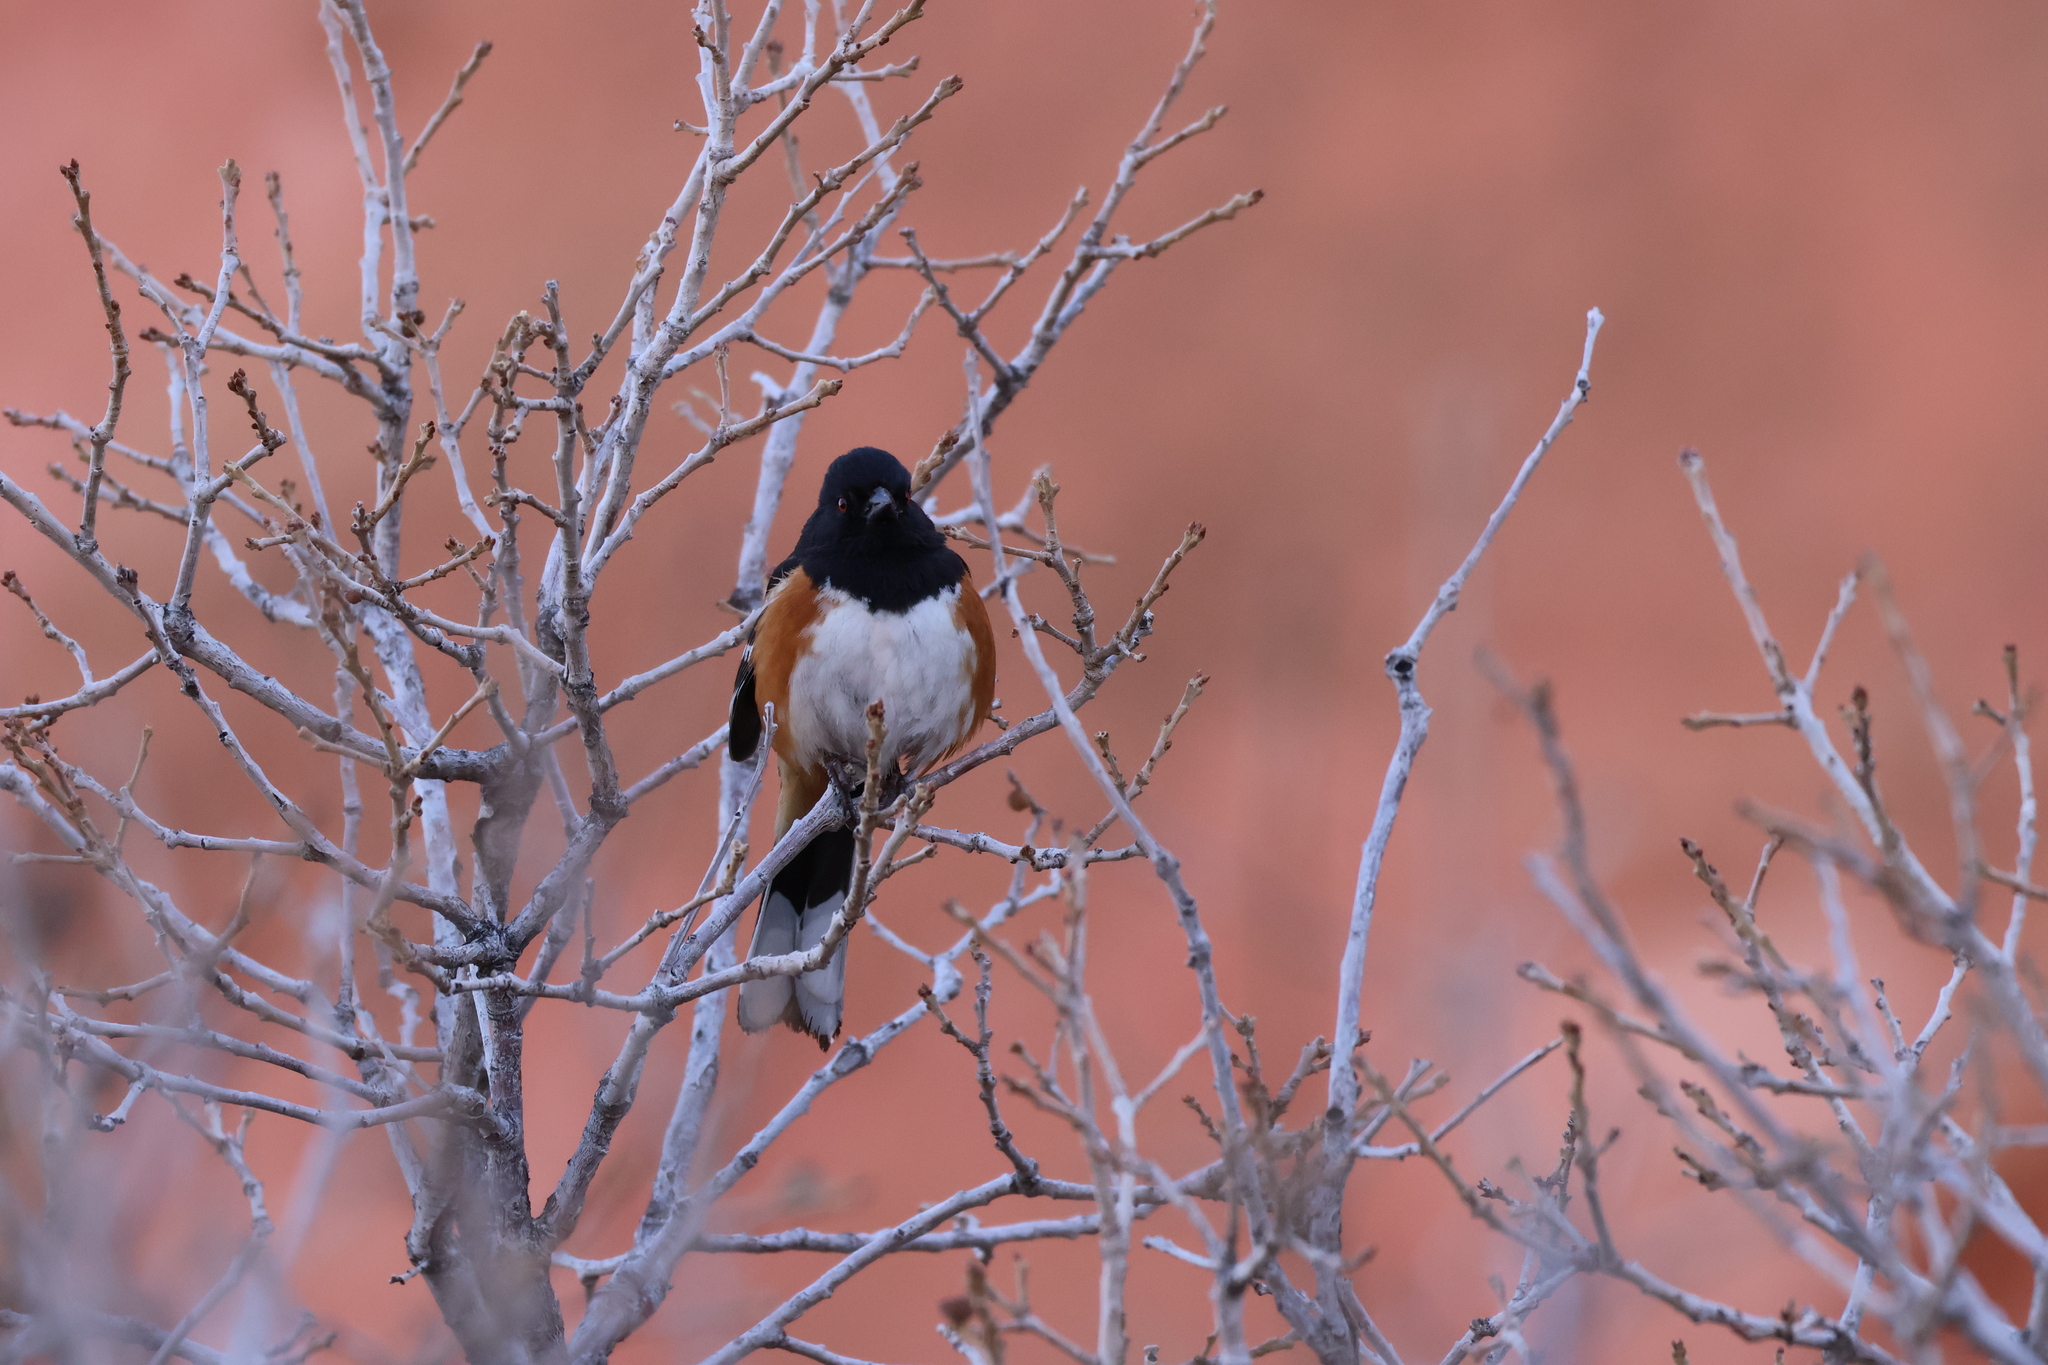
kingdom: Animalia
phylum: Chordata
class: Aves
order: Passeriformes
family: Passerellidae
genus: Pipilo
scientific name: Pipilo maculatus
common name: Spotted towhee
